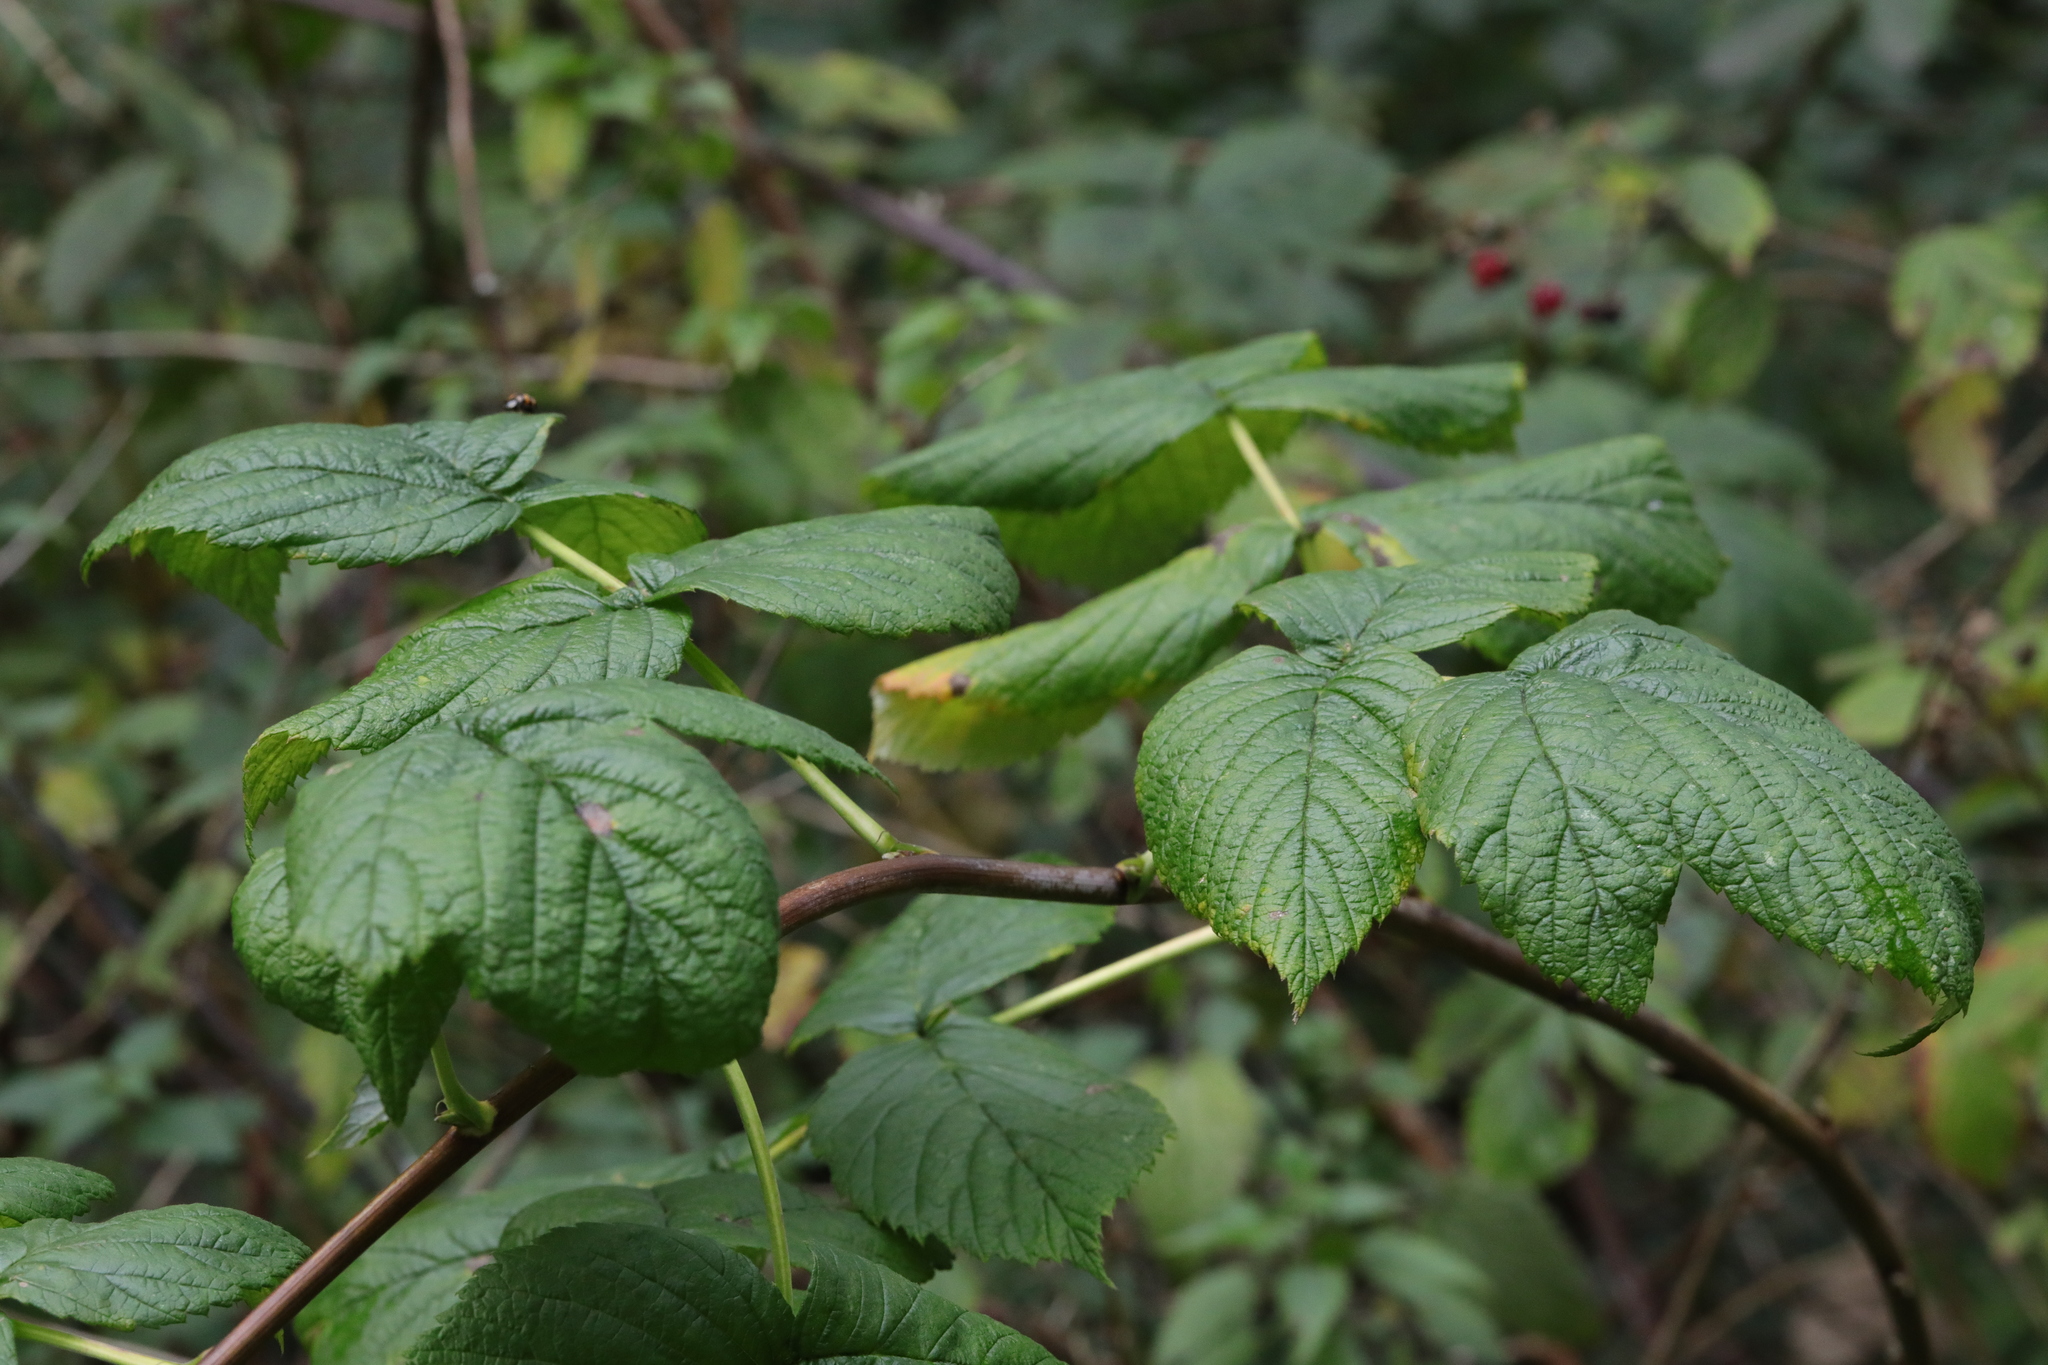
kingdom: Plantae
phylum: Tracheophyta
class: Magnoliopsida
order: Rosales
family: Rosaceae
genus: Rubus
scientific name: Rubus idaeus
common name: Raspberry
